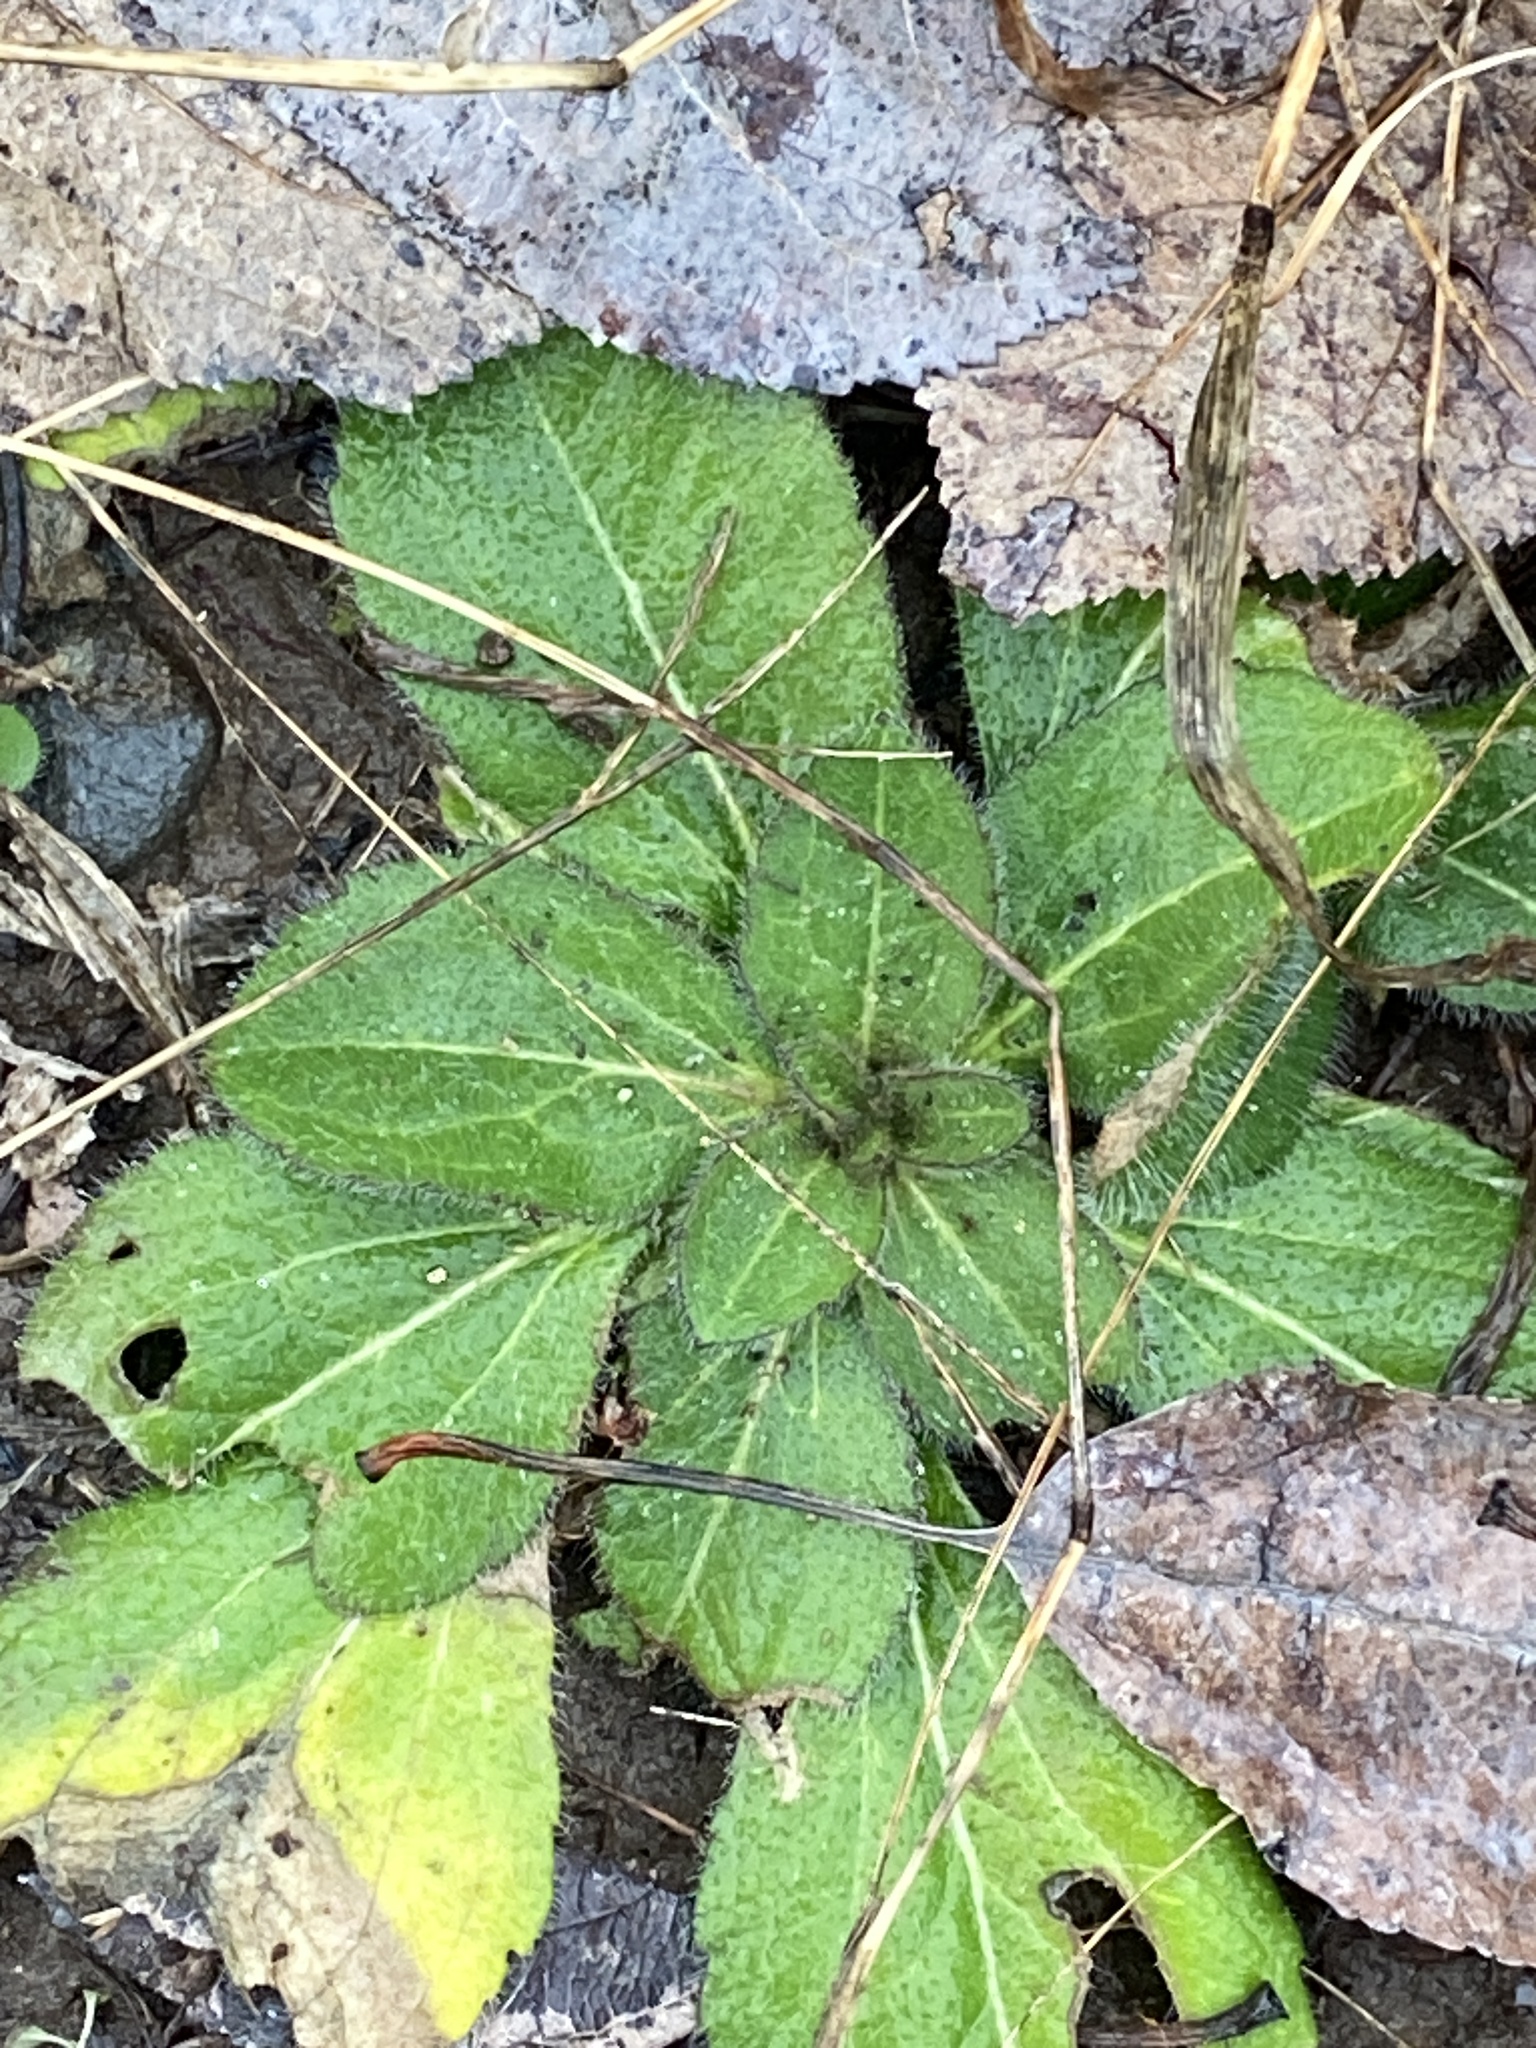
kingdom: Plantae
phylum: Tracheophyta
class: Magnoliopsida
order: Asterales
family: Asteraceae
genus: Rudbeckia
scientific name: Rudbeckia hirta
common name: Black-eyed-susan
